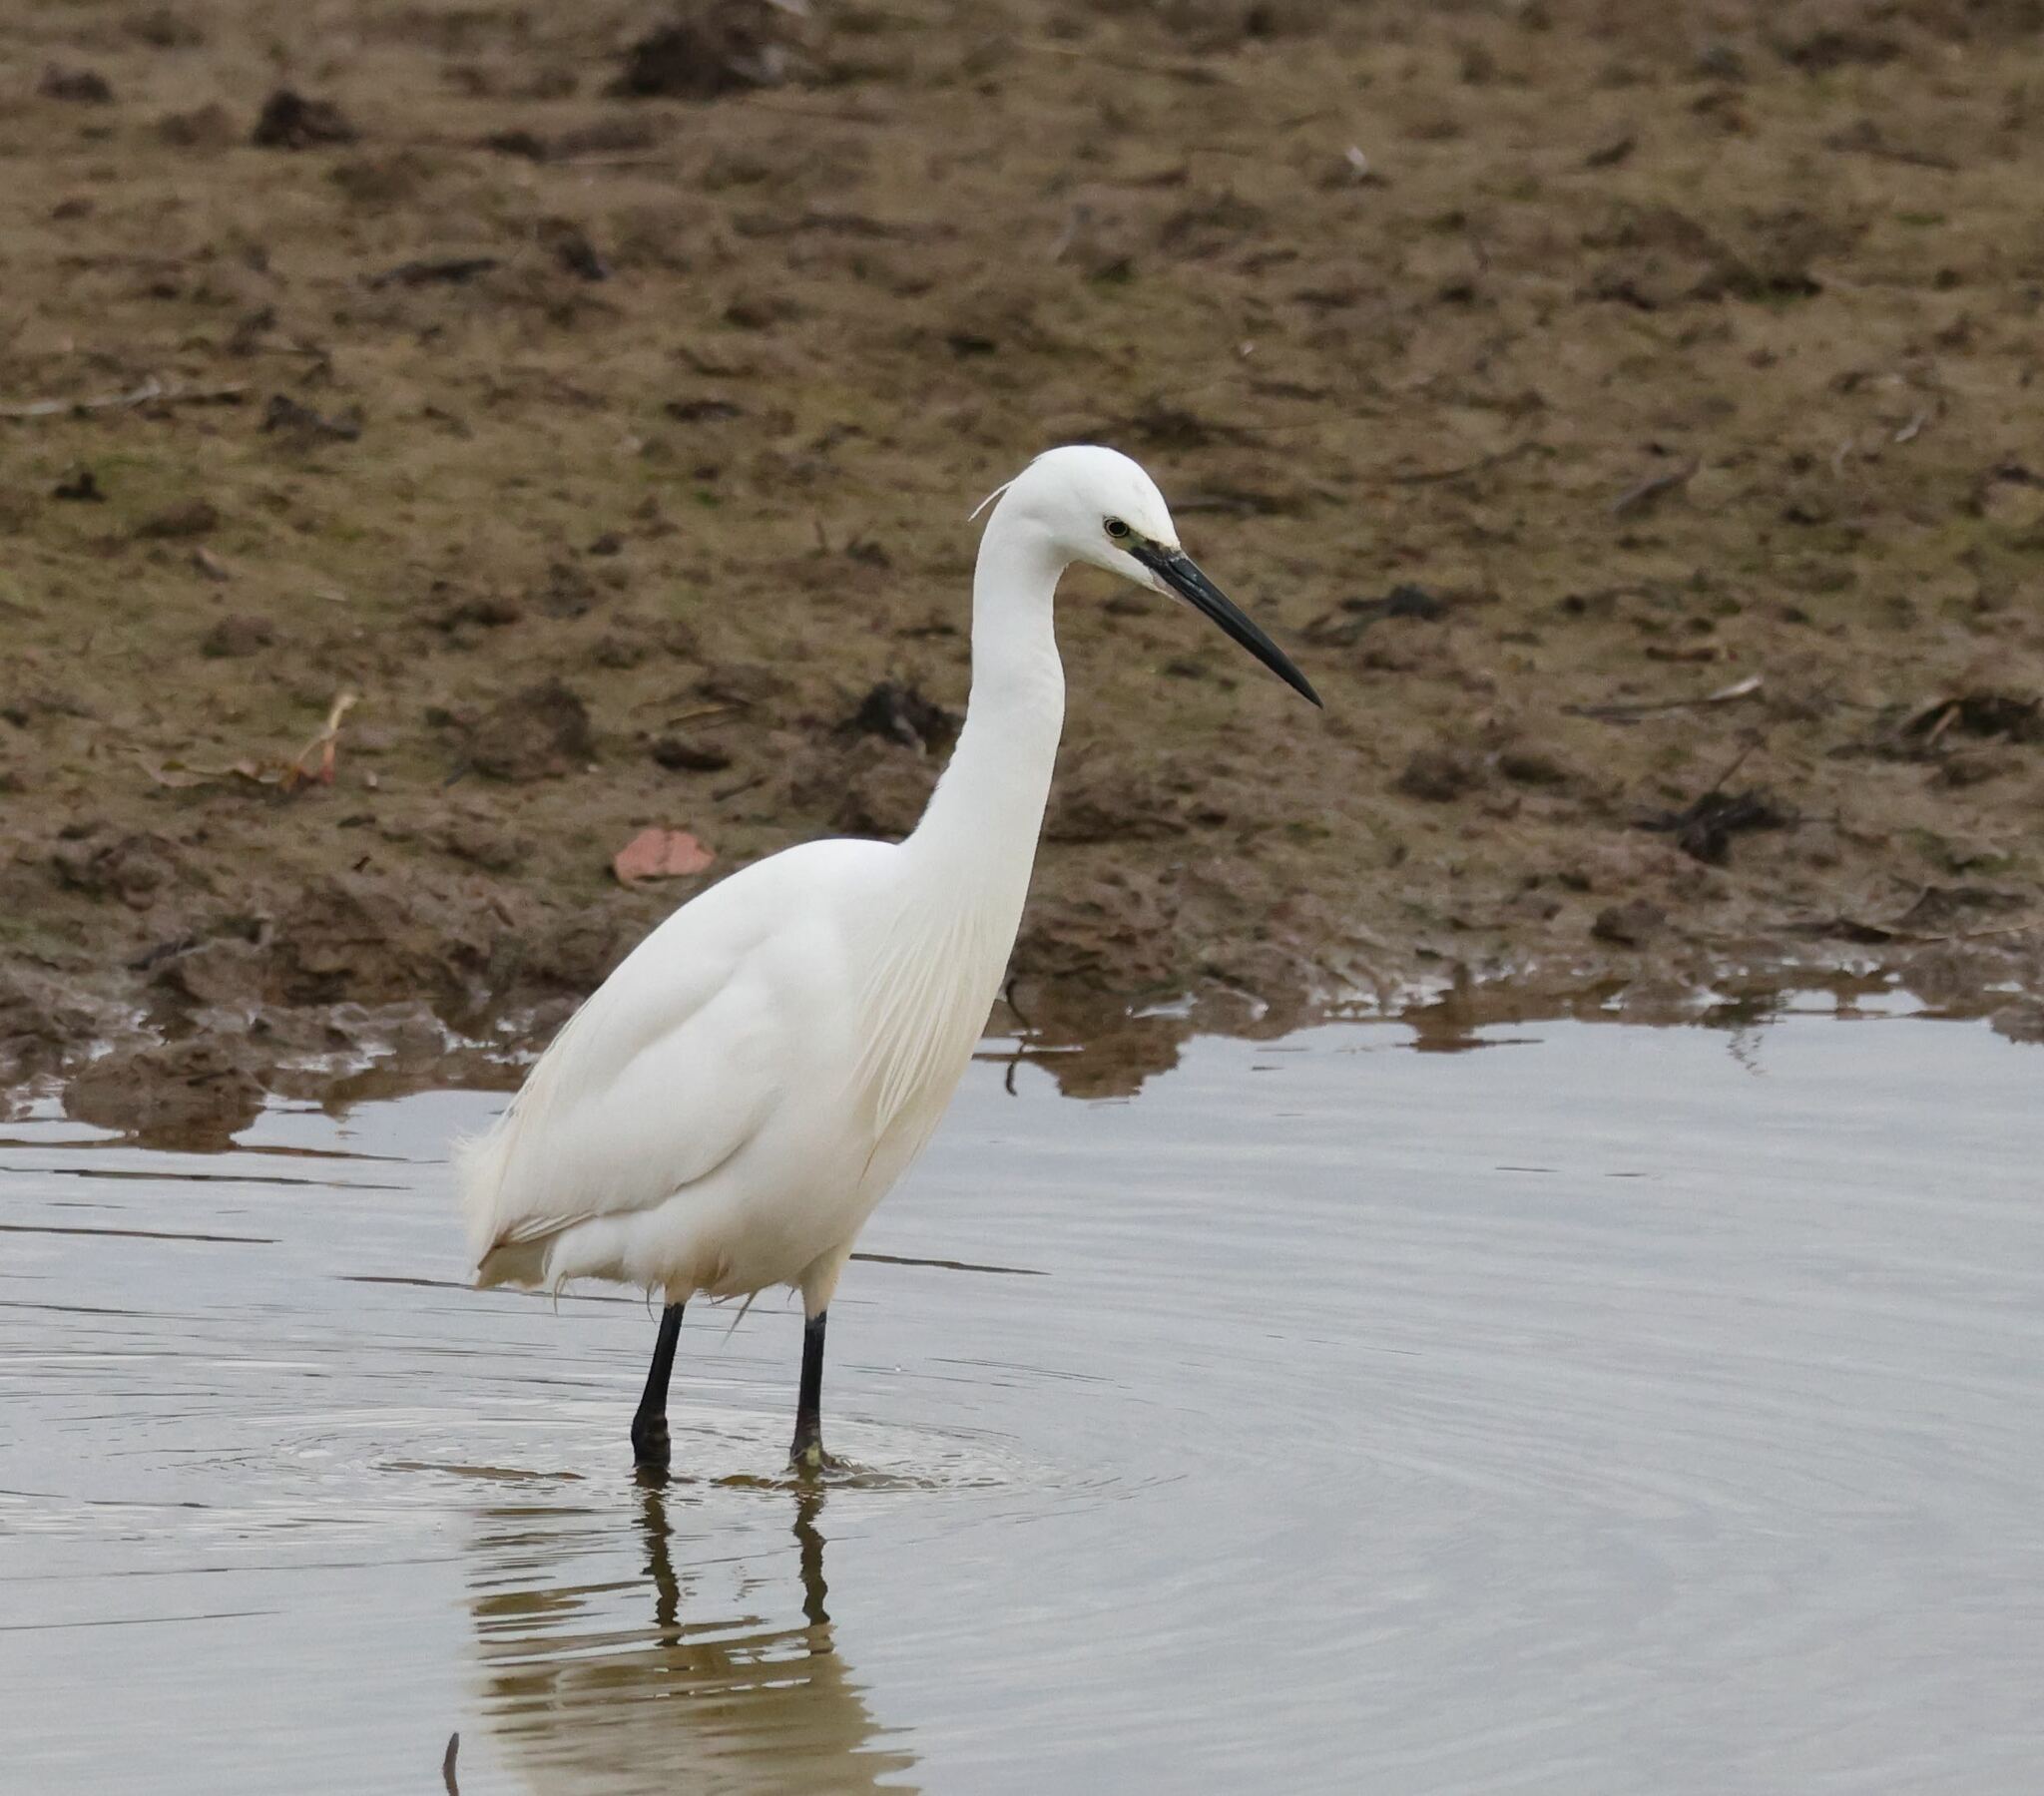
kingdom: Animalia
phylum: Chordata
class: Aves
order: Pelecaniformes
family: Ardeidae
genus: Egretta
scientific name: Egretta garzetta
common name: Little egret
